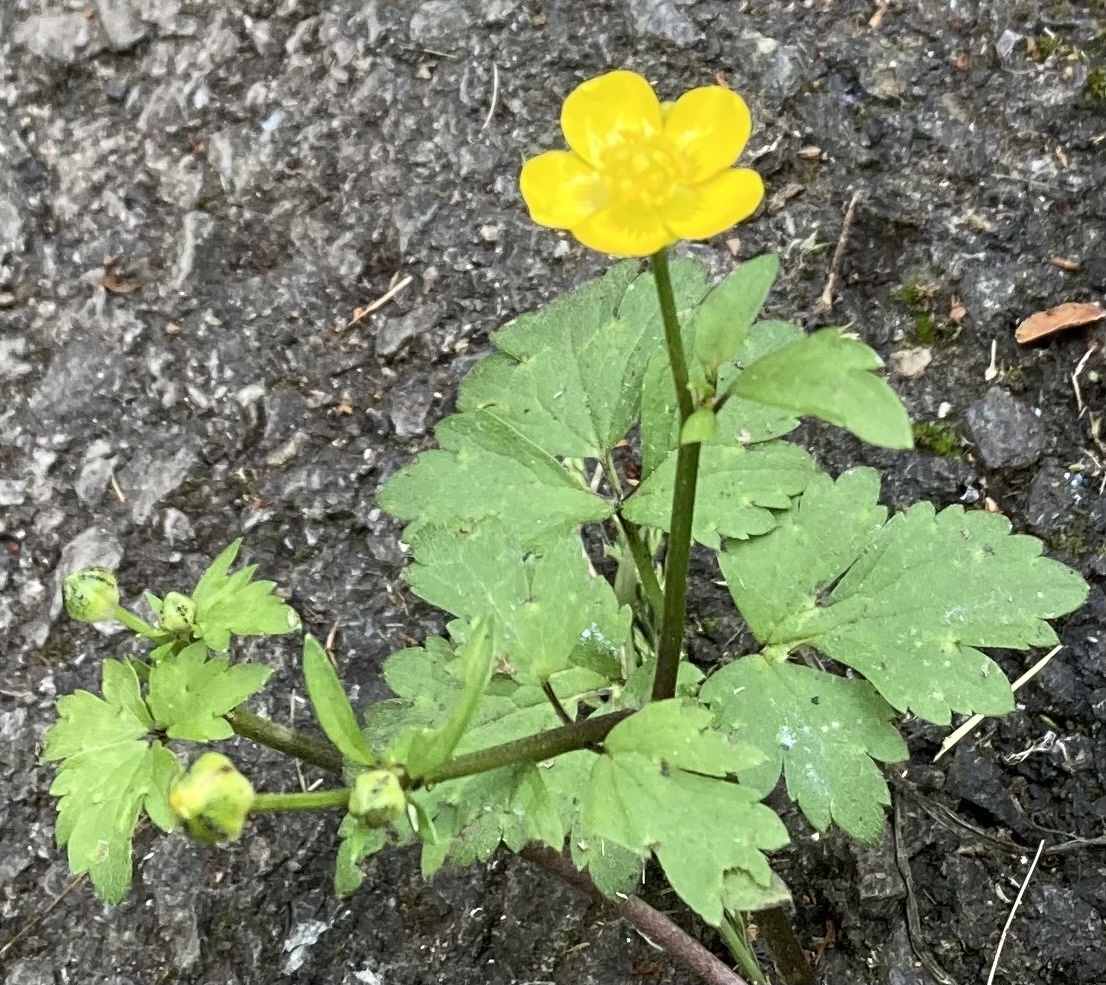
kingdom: Plantae
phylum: Tracheophyta
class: Magnoliopsida
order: Ranunculales
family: Ranunculaceae
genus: Ranunculus
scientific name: Ranunculus repens
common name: Creeping buttercup
